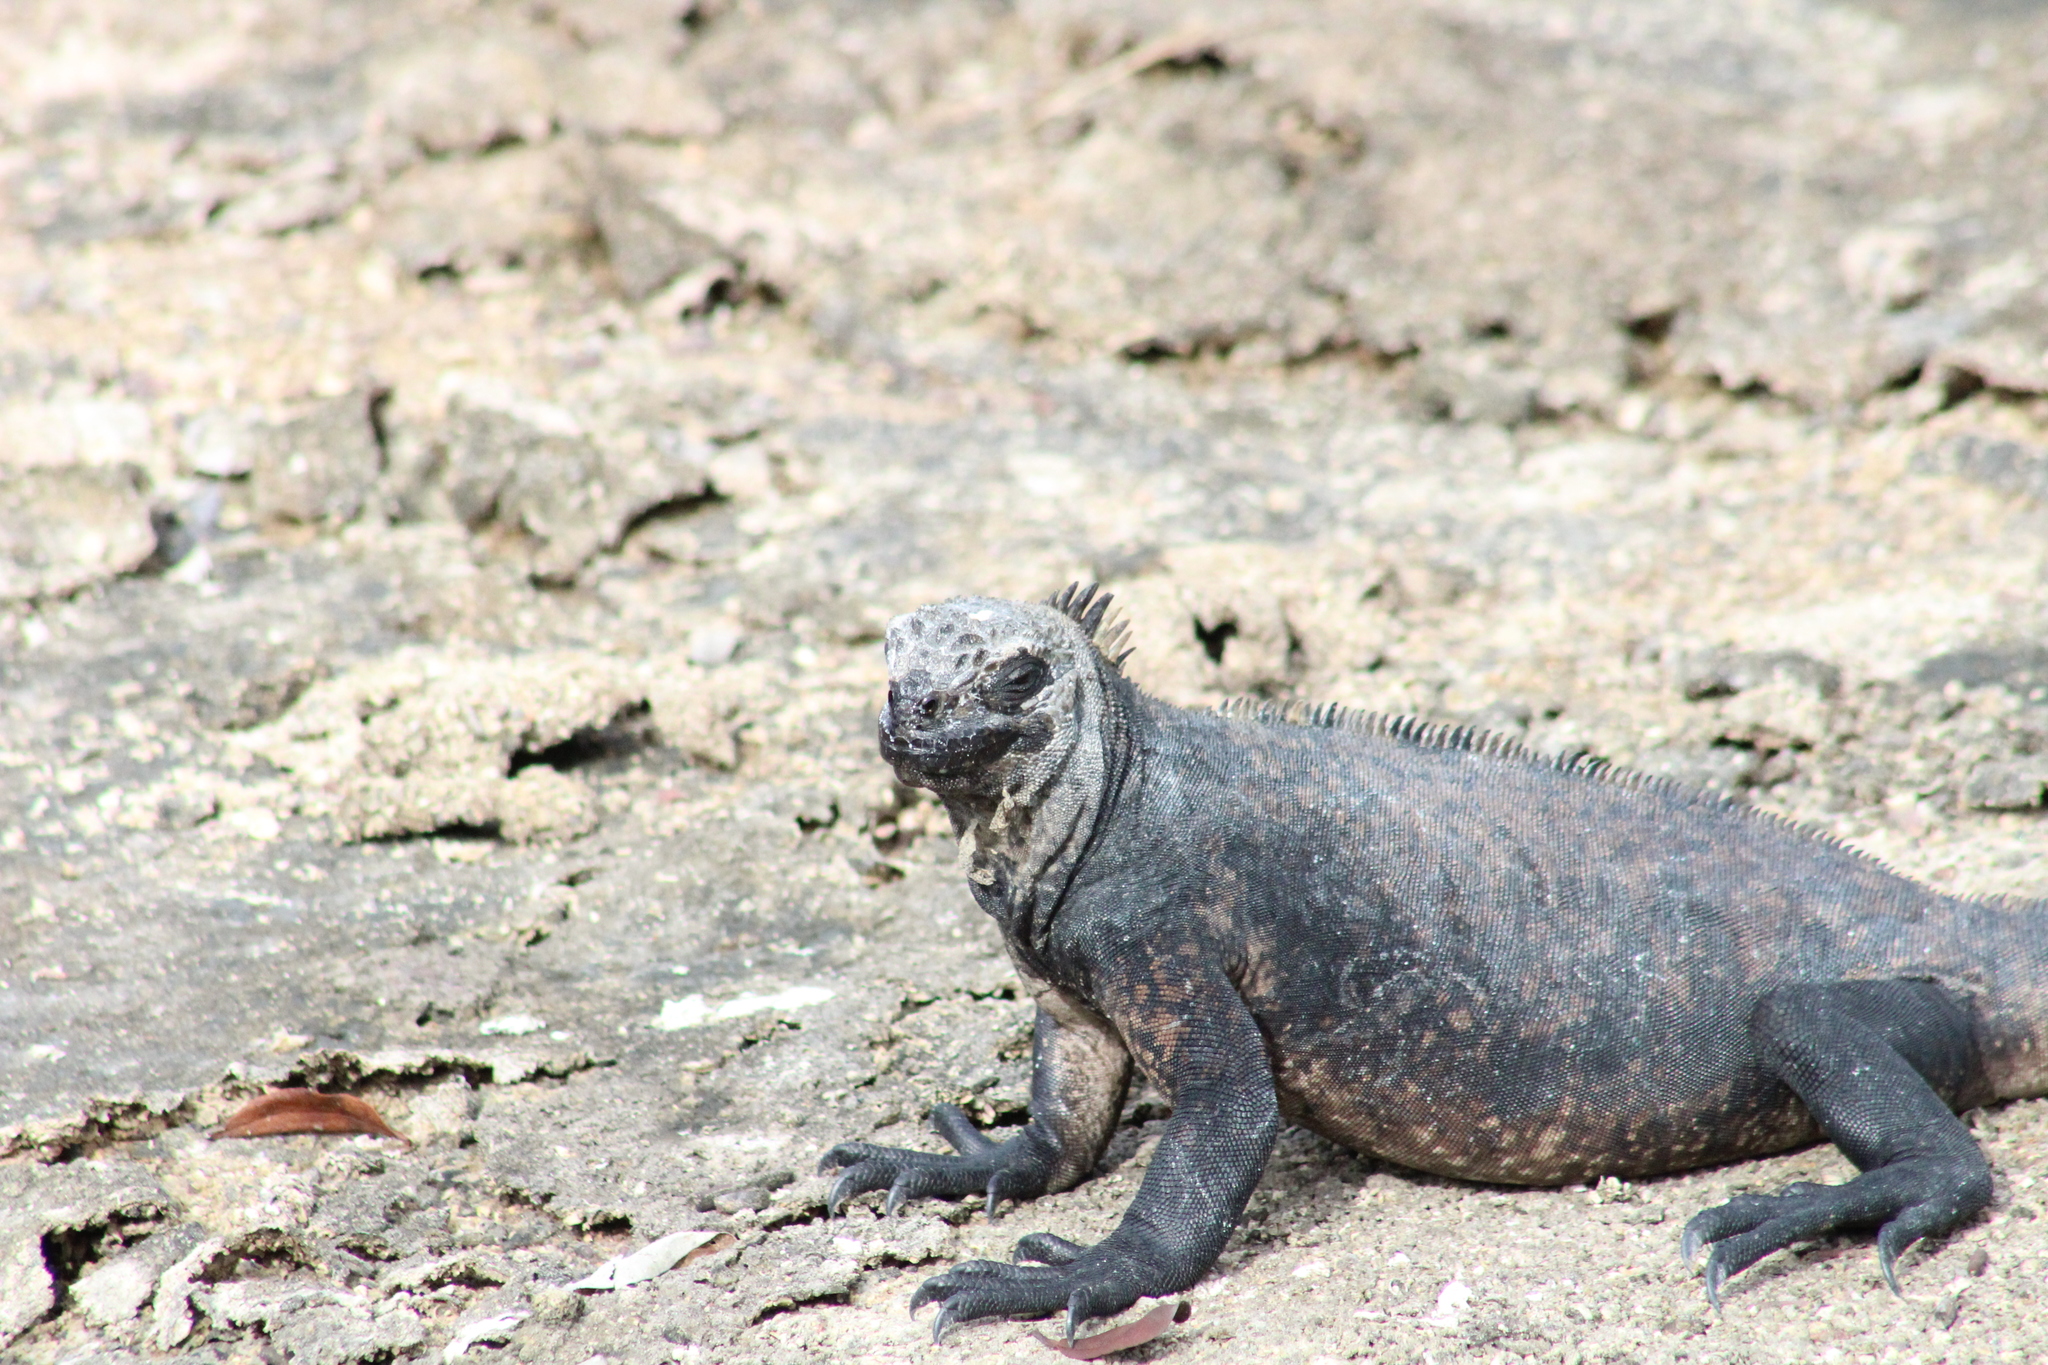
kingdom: Animalia
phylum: Chordata
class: Squamata
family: Iguanidae
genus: Amblyrhynchus
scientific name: Amblyrhynchus cristatus
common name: Marine iguana
